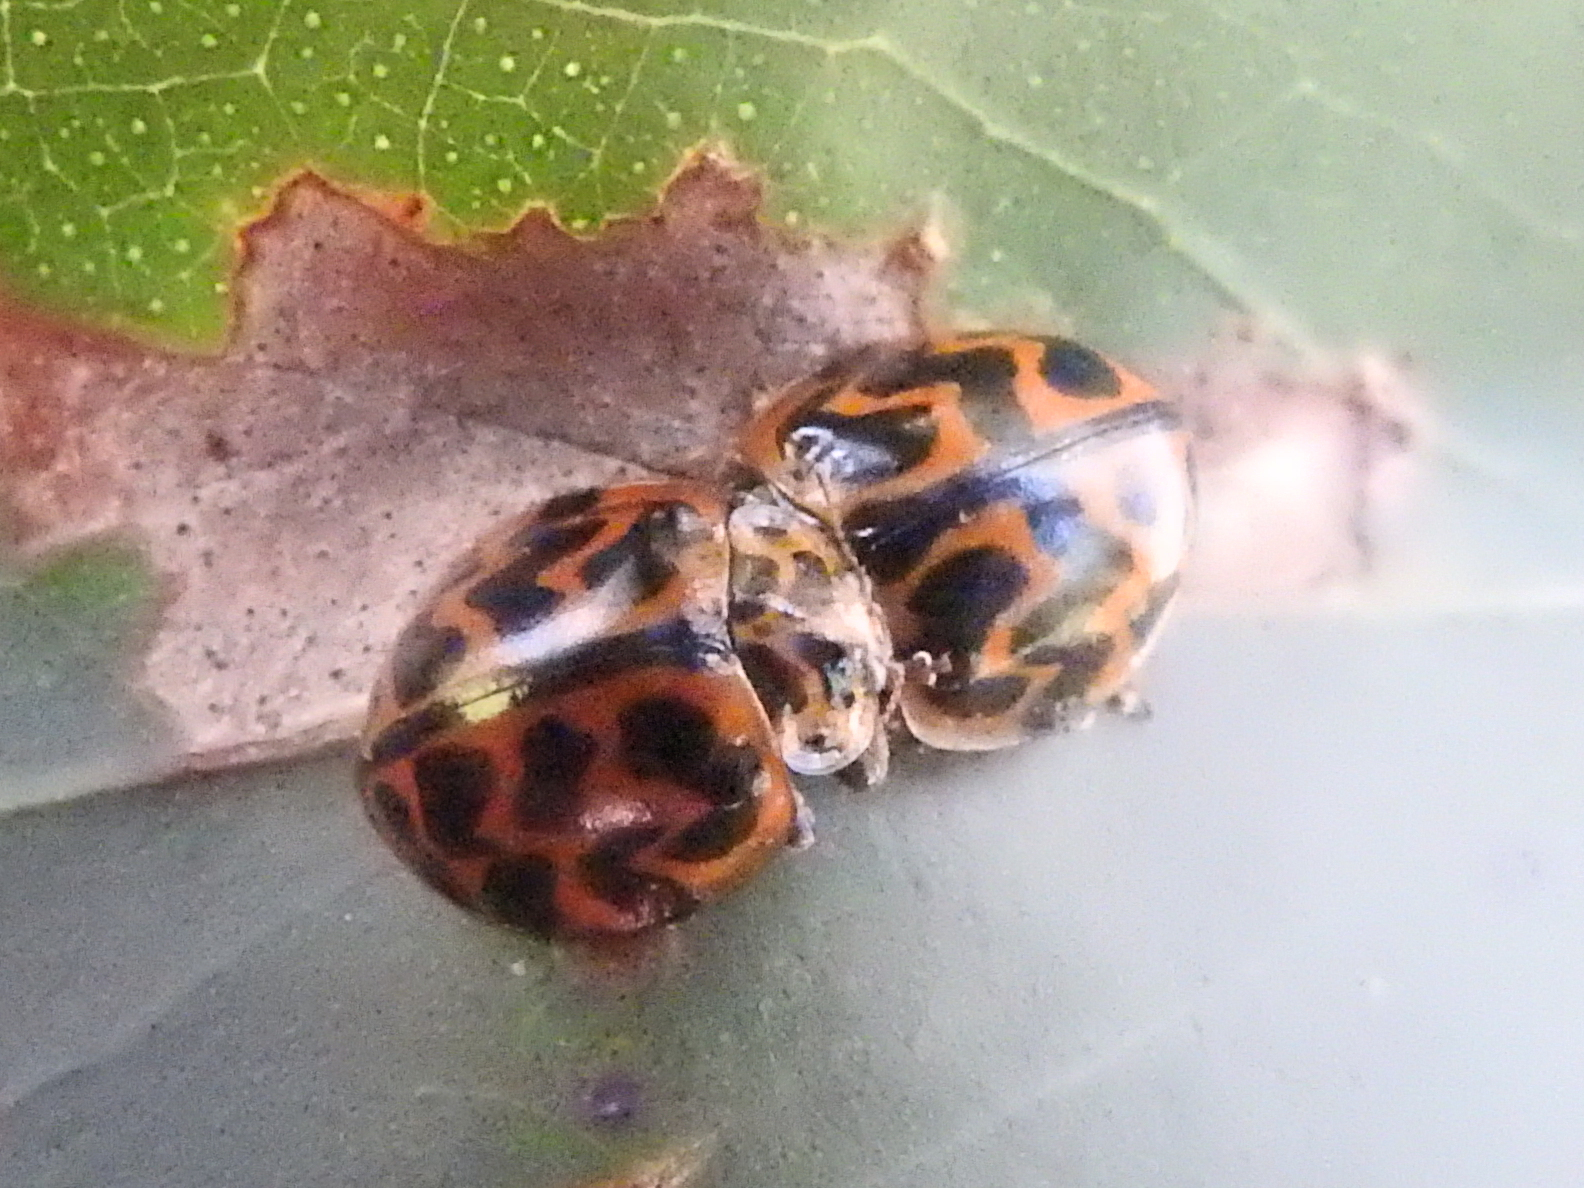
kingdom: Animalia
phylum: Arthropoda
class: Insecta
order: Coleoptera
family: Coccinellidae
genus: Cleobora
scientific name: Cleobora
